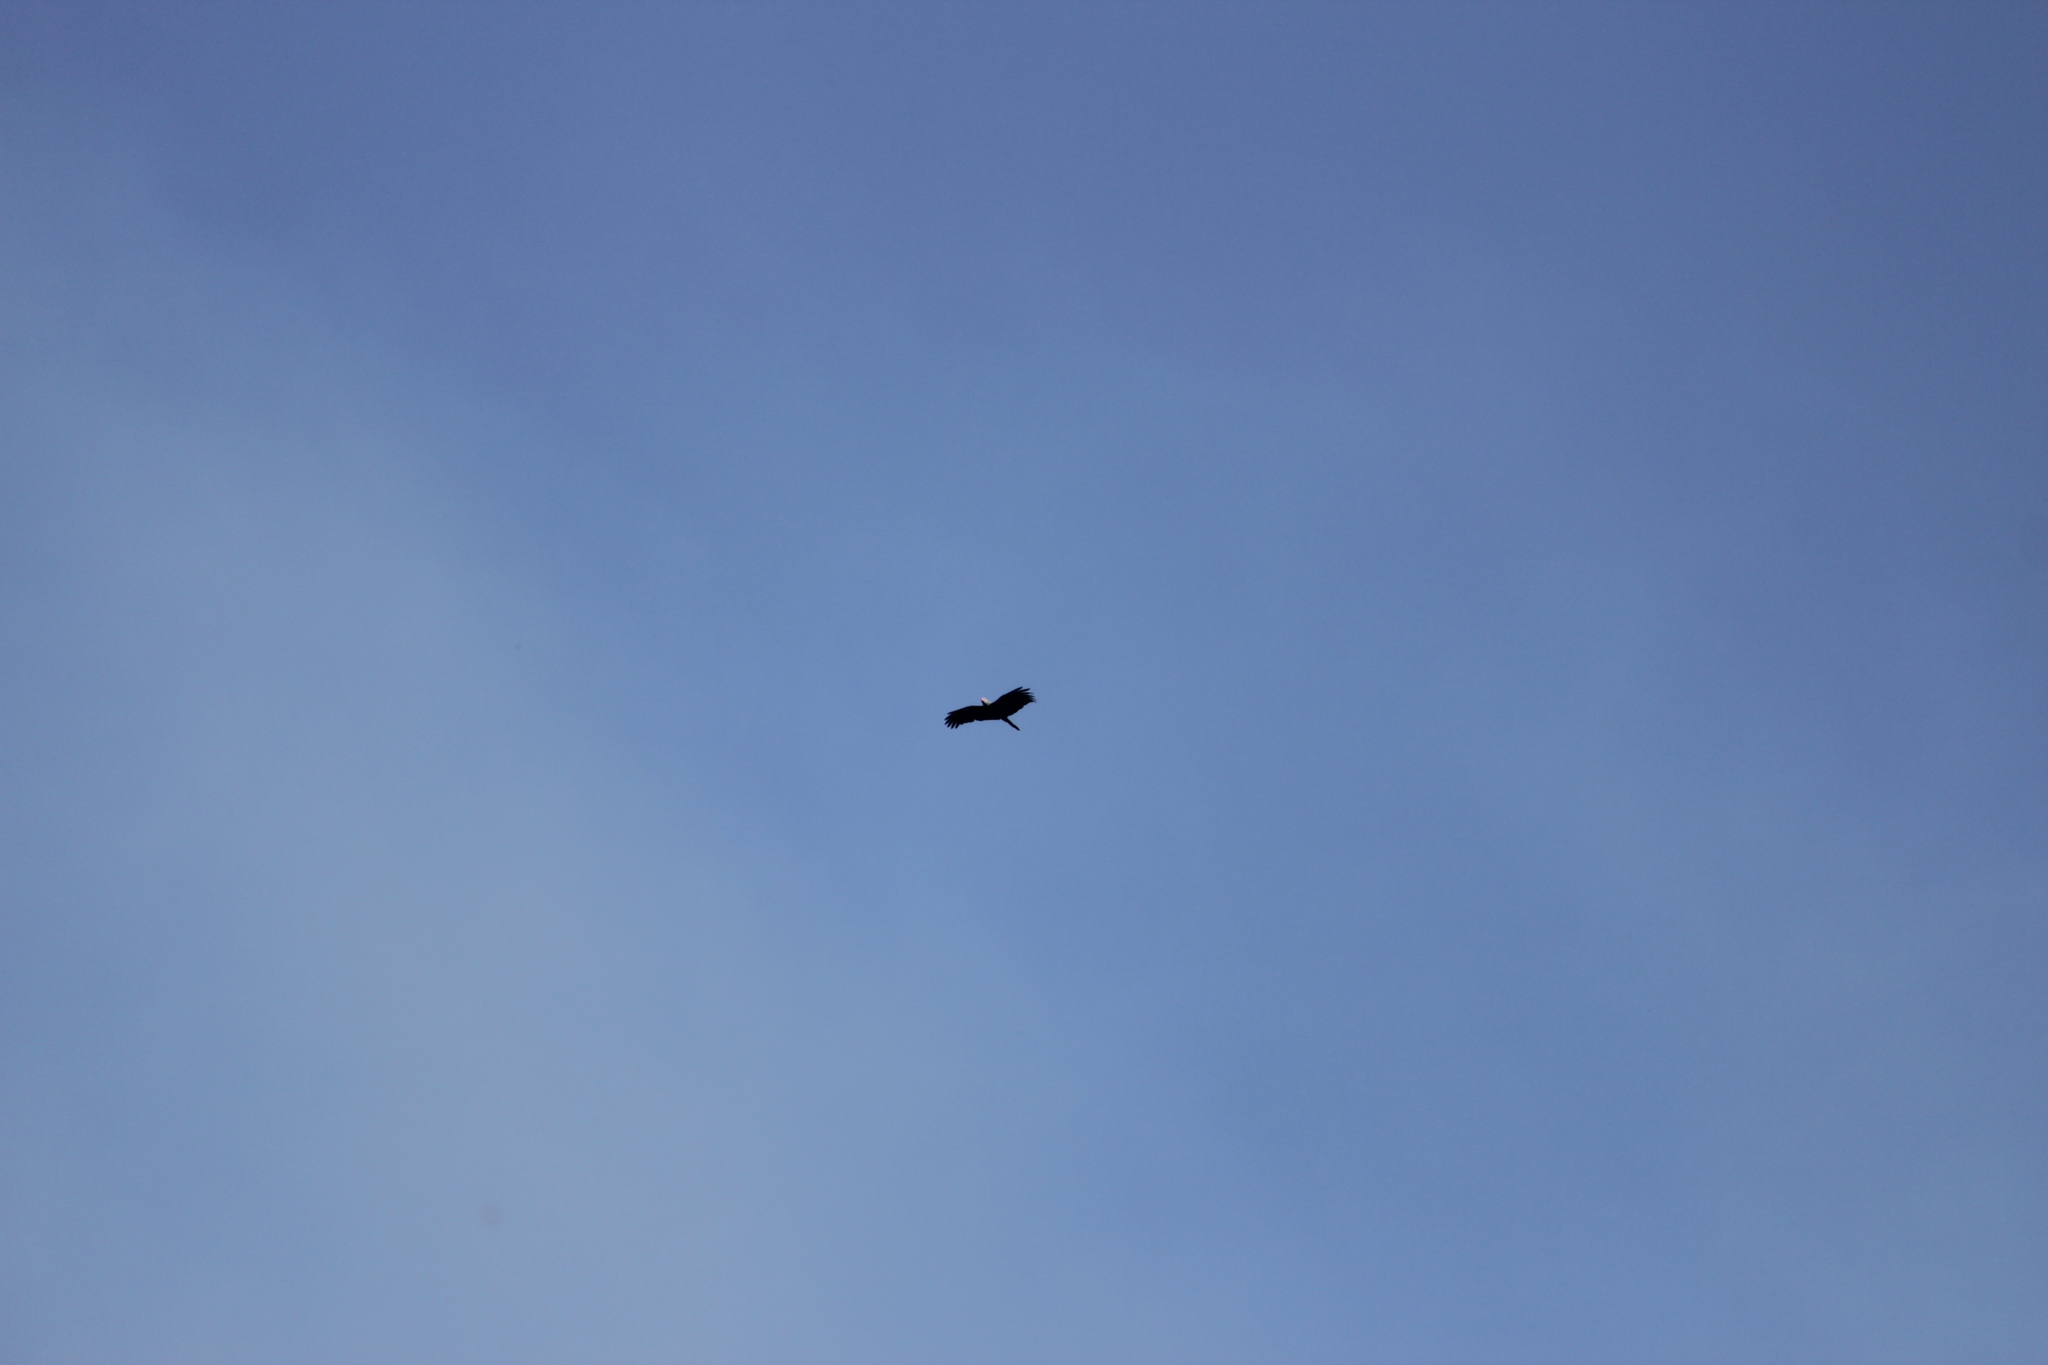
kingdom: Animalia
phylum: Chordata
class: Aves
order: Accipitriformes
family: Accipitridae
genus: Polyboroides
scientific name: Polyboroides typus
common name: African harrier-hawk
